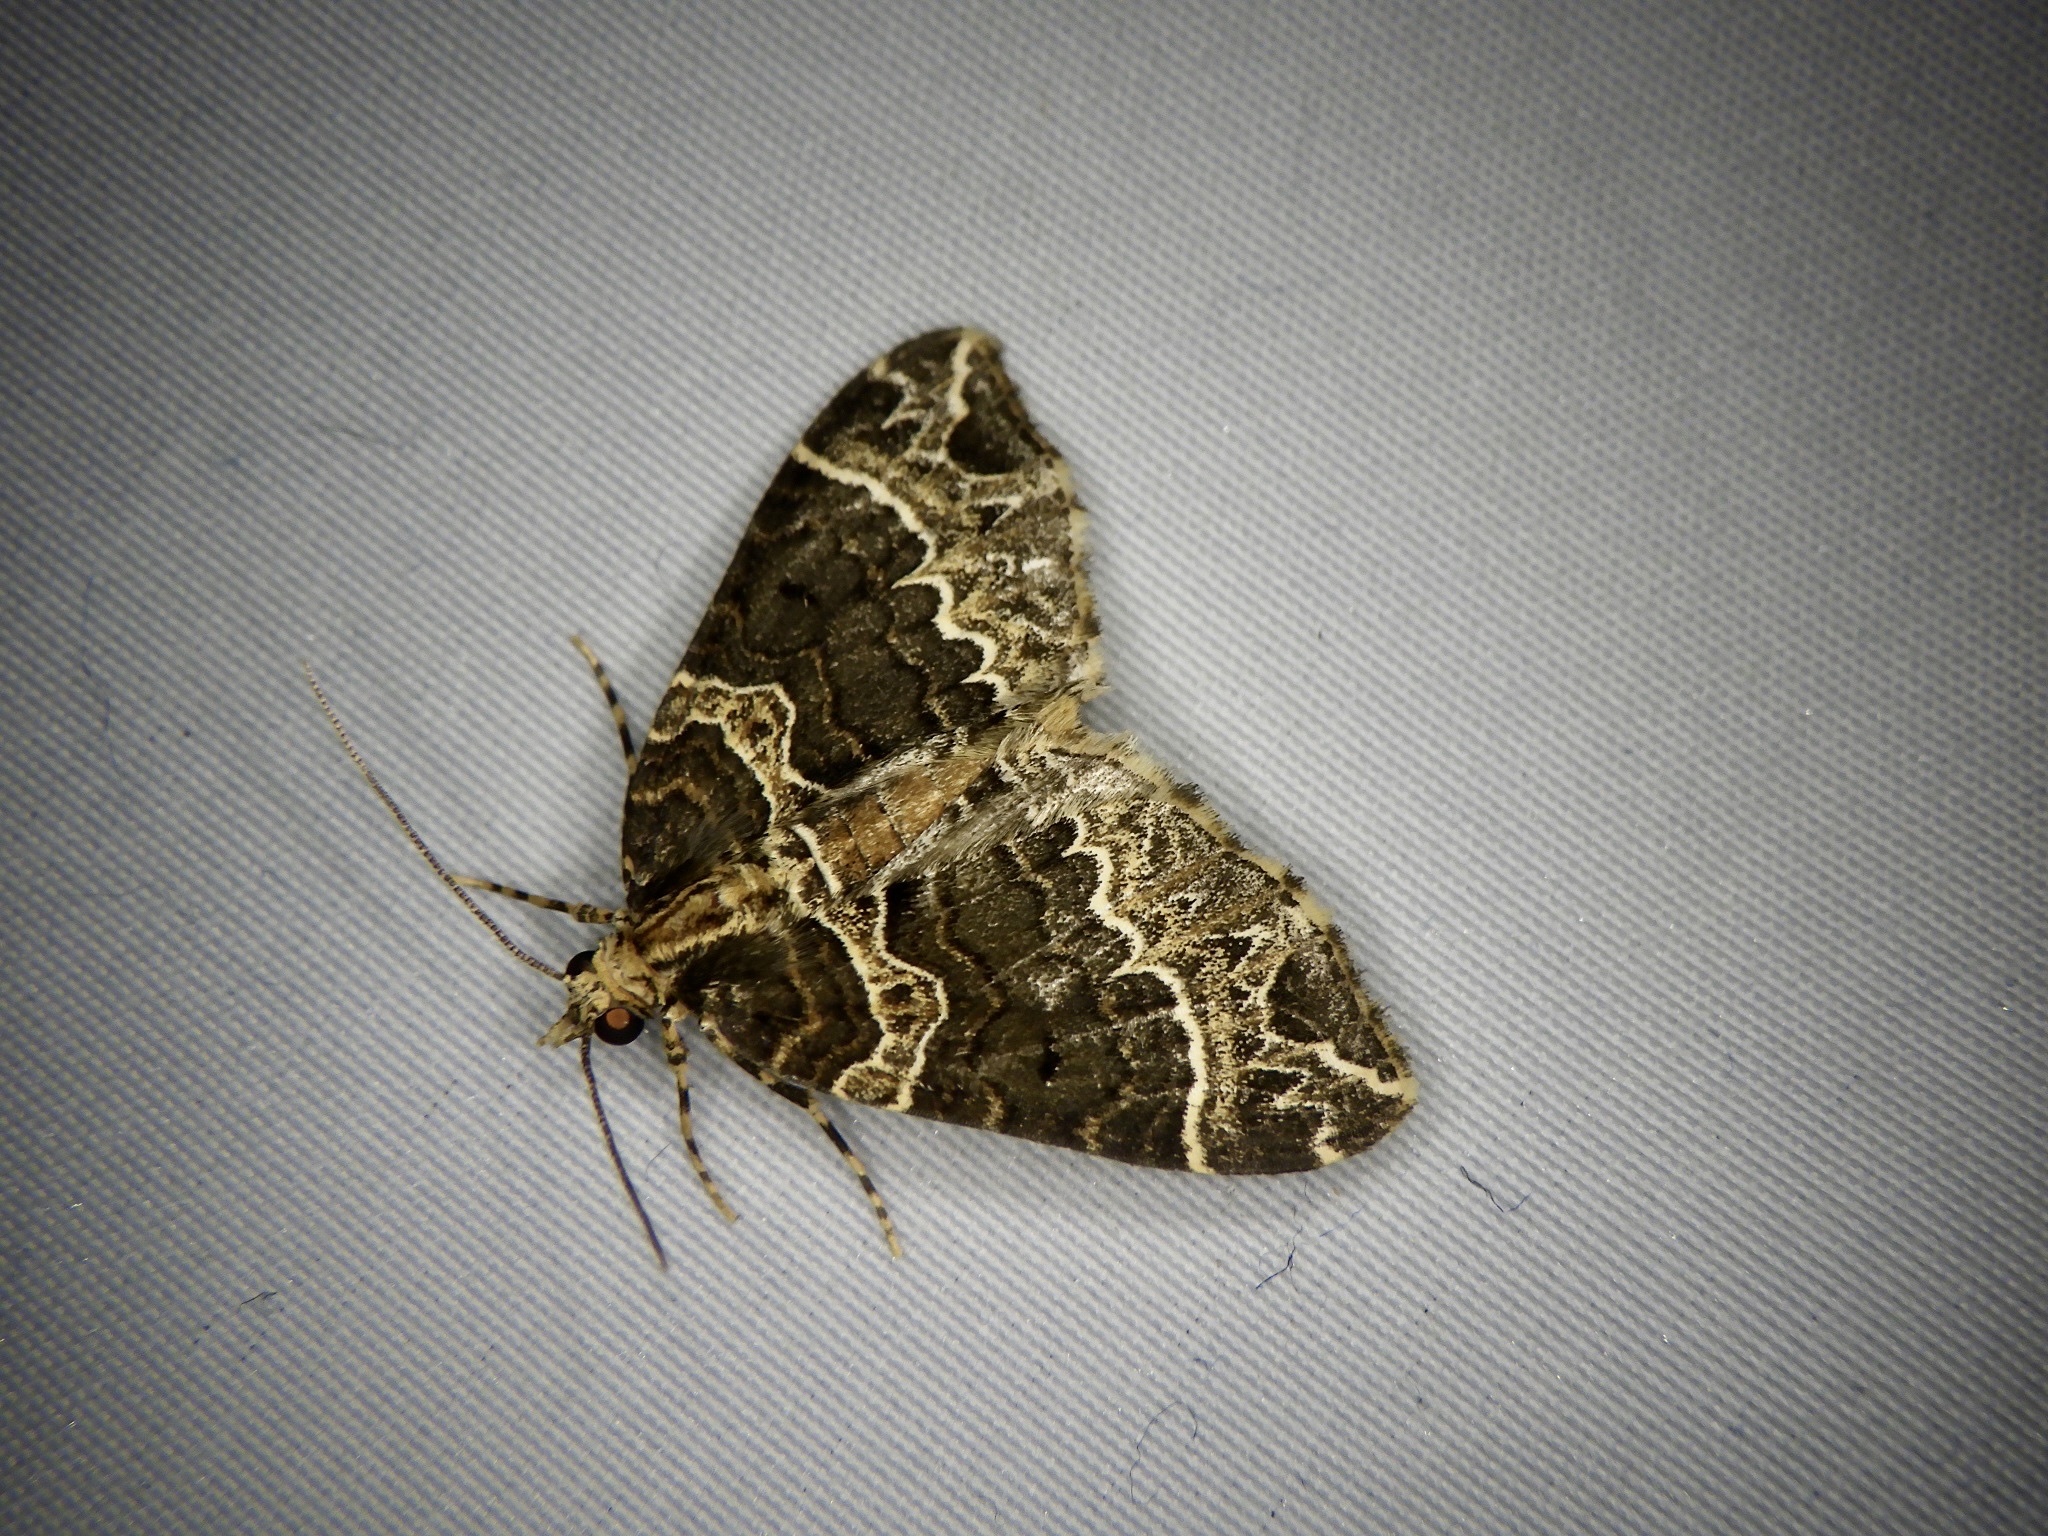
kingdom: Animalia
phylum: Arthropoda
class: Insecta
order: Lepidoptera
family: Geometridae
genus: Ecliptopera
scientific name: Ecliptopera umbrosaria
